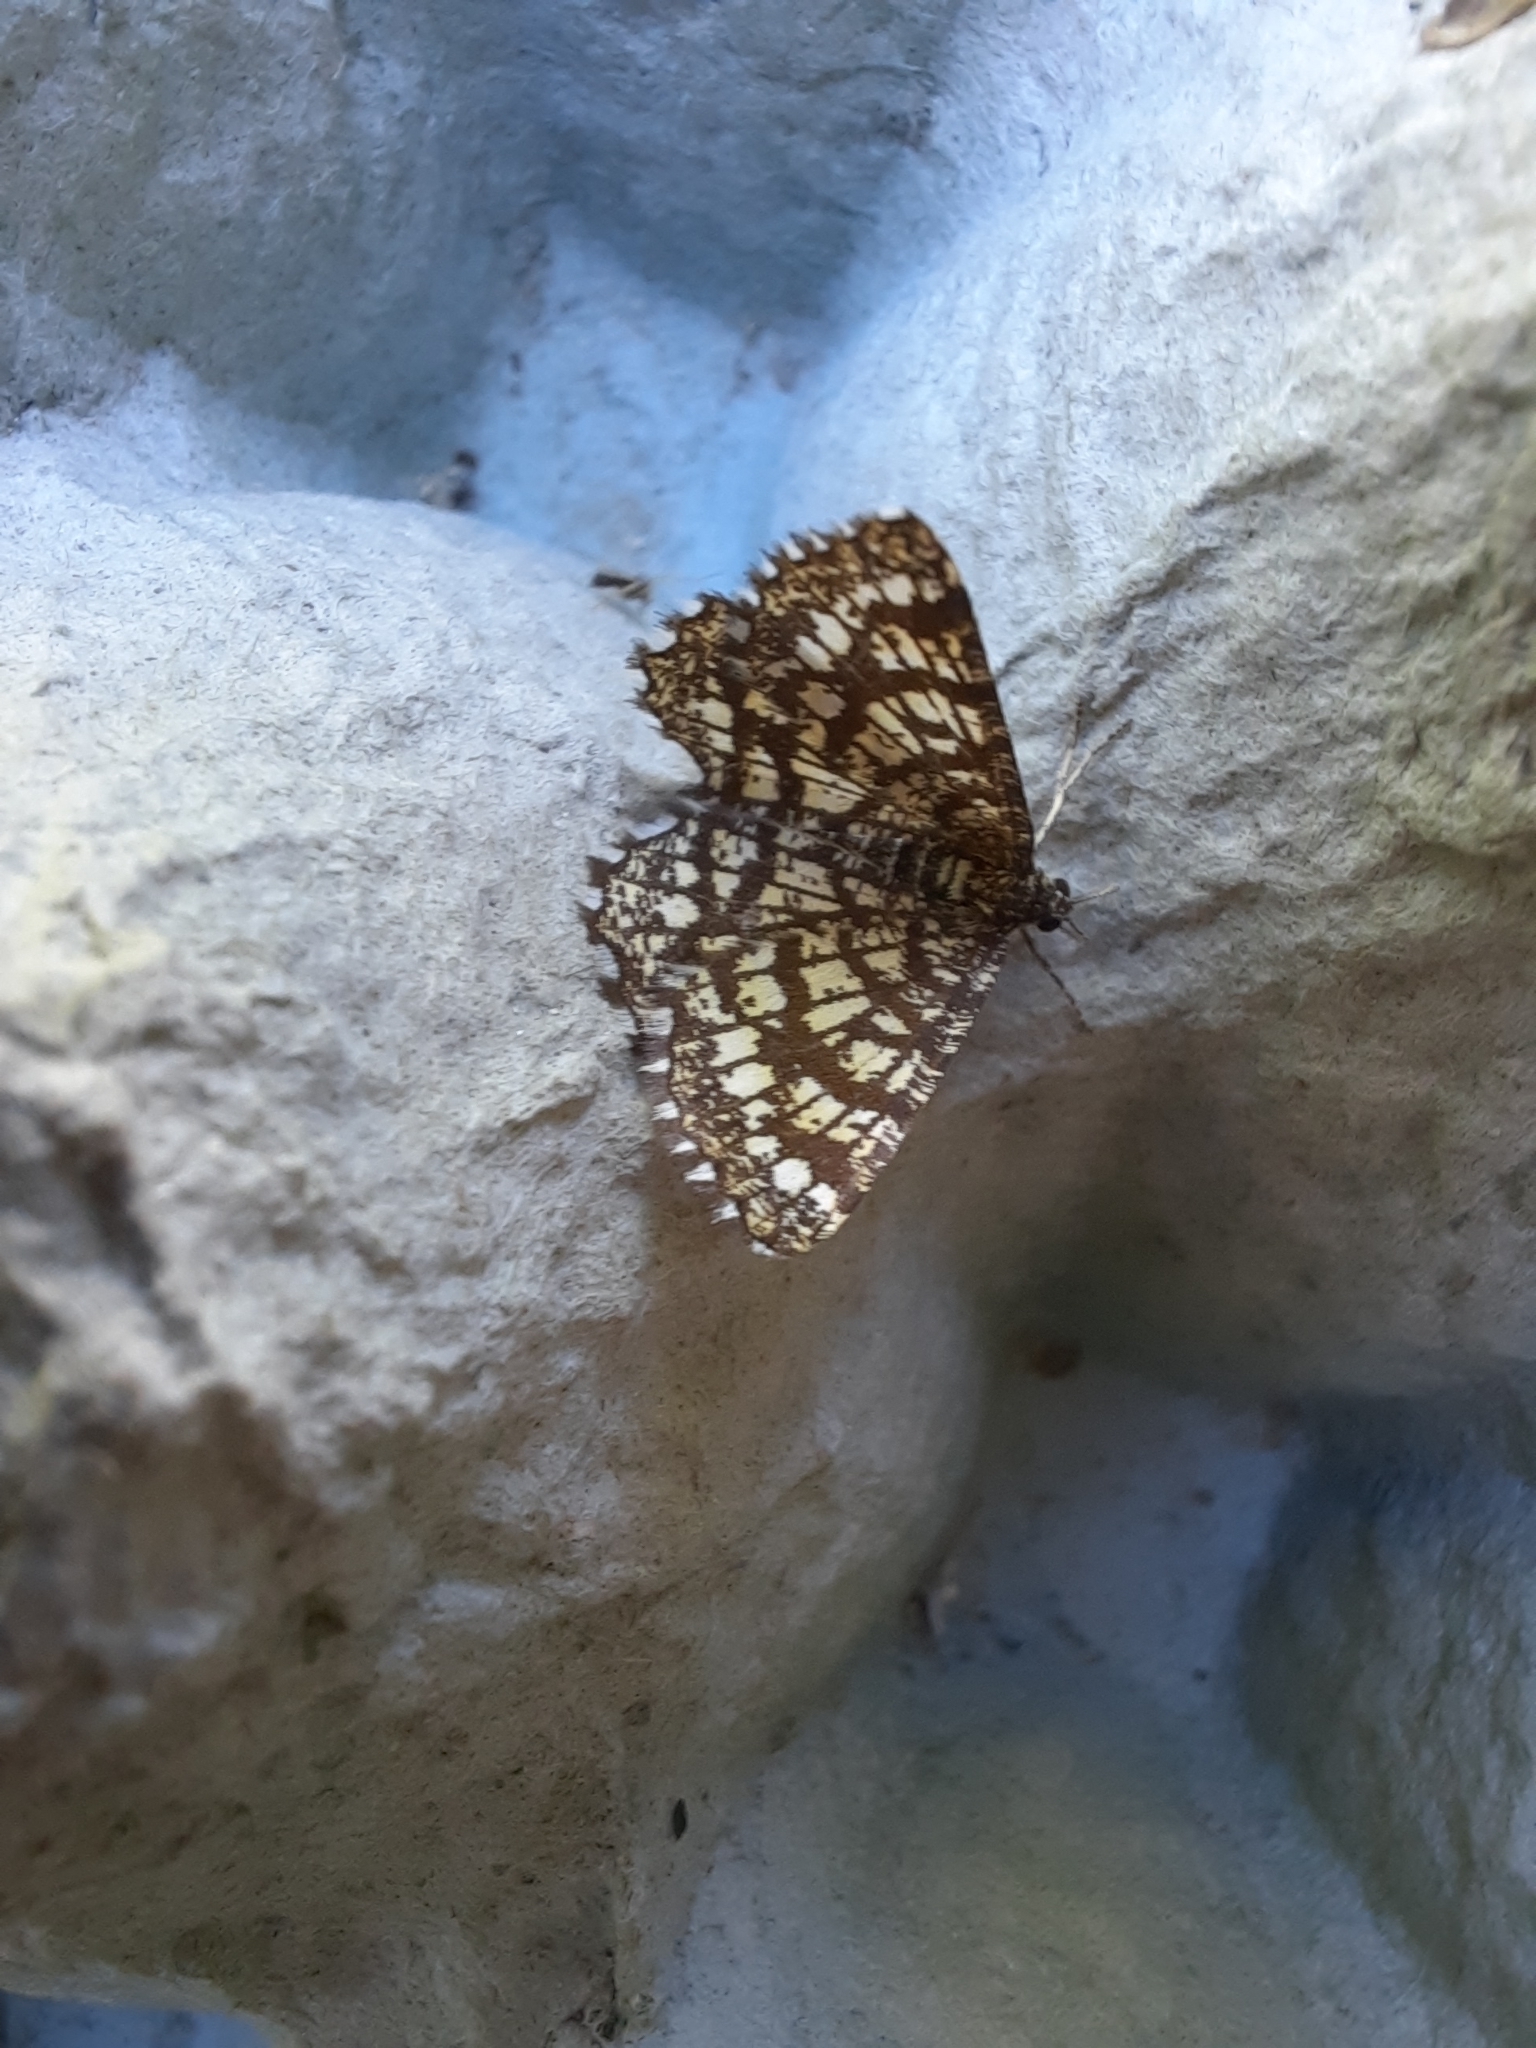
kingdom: Animalia
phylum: Arthropoda
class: Insecta
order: Lepidoptera
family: Geometridae
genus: Chiasmia
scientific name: Chiasmia clathrata
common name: Latticed heath
